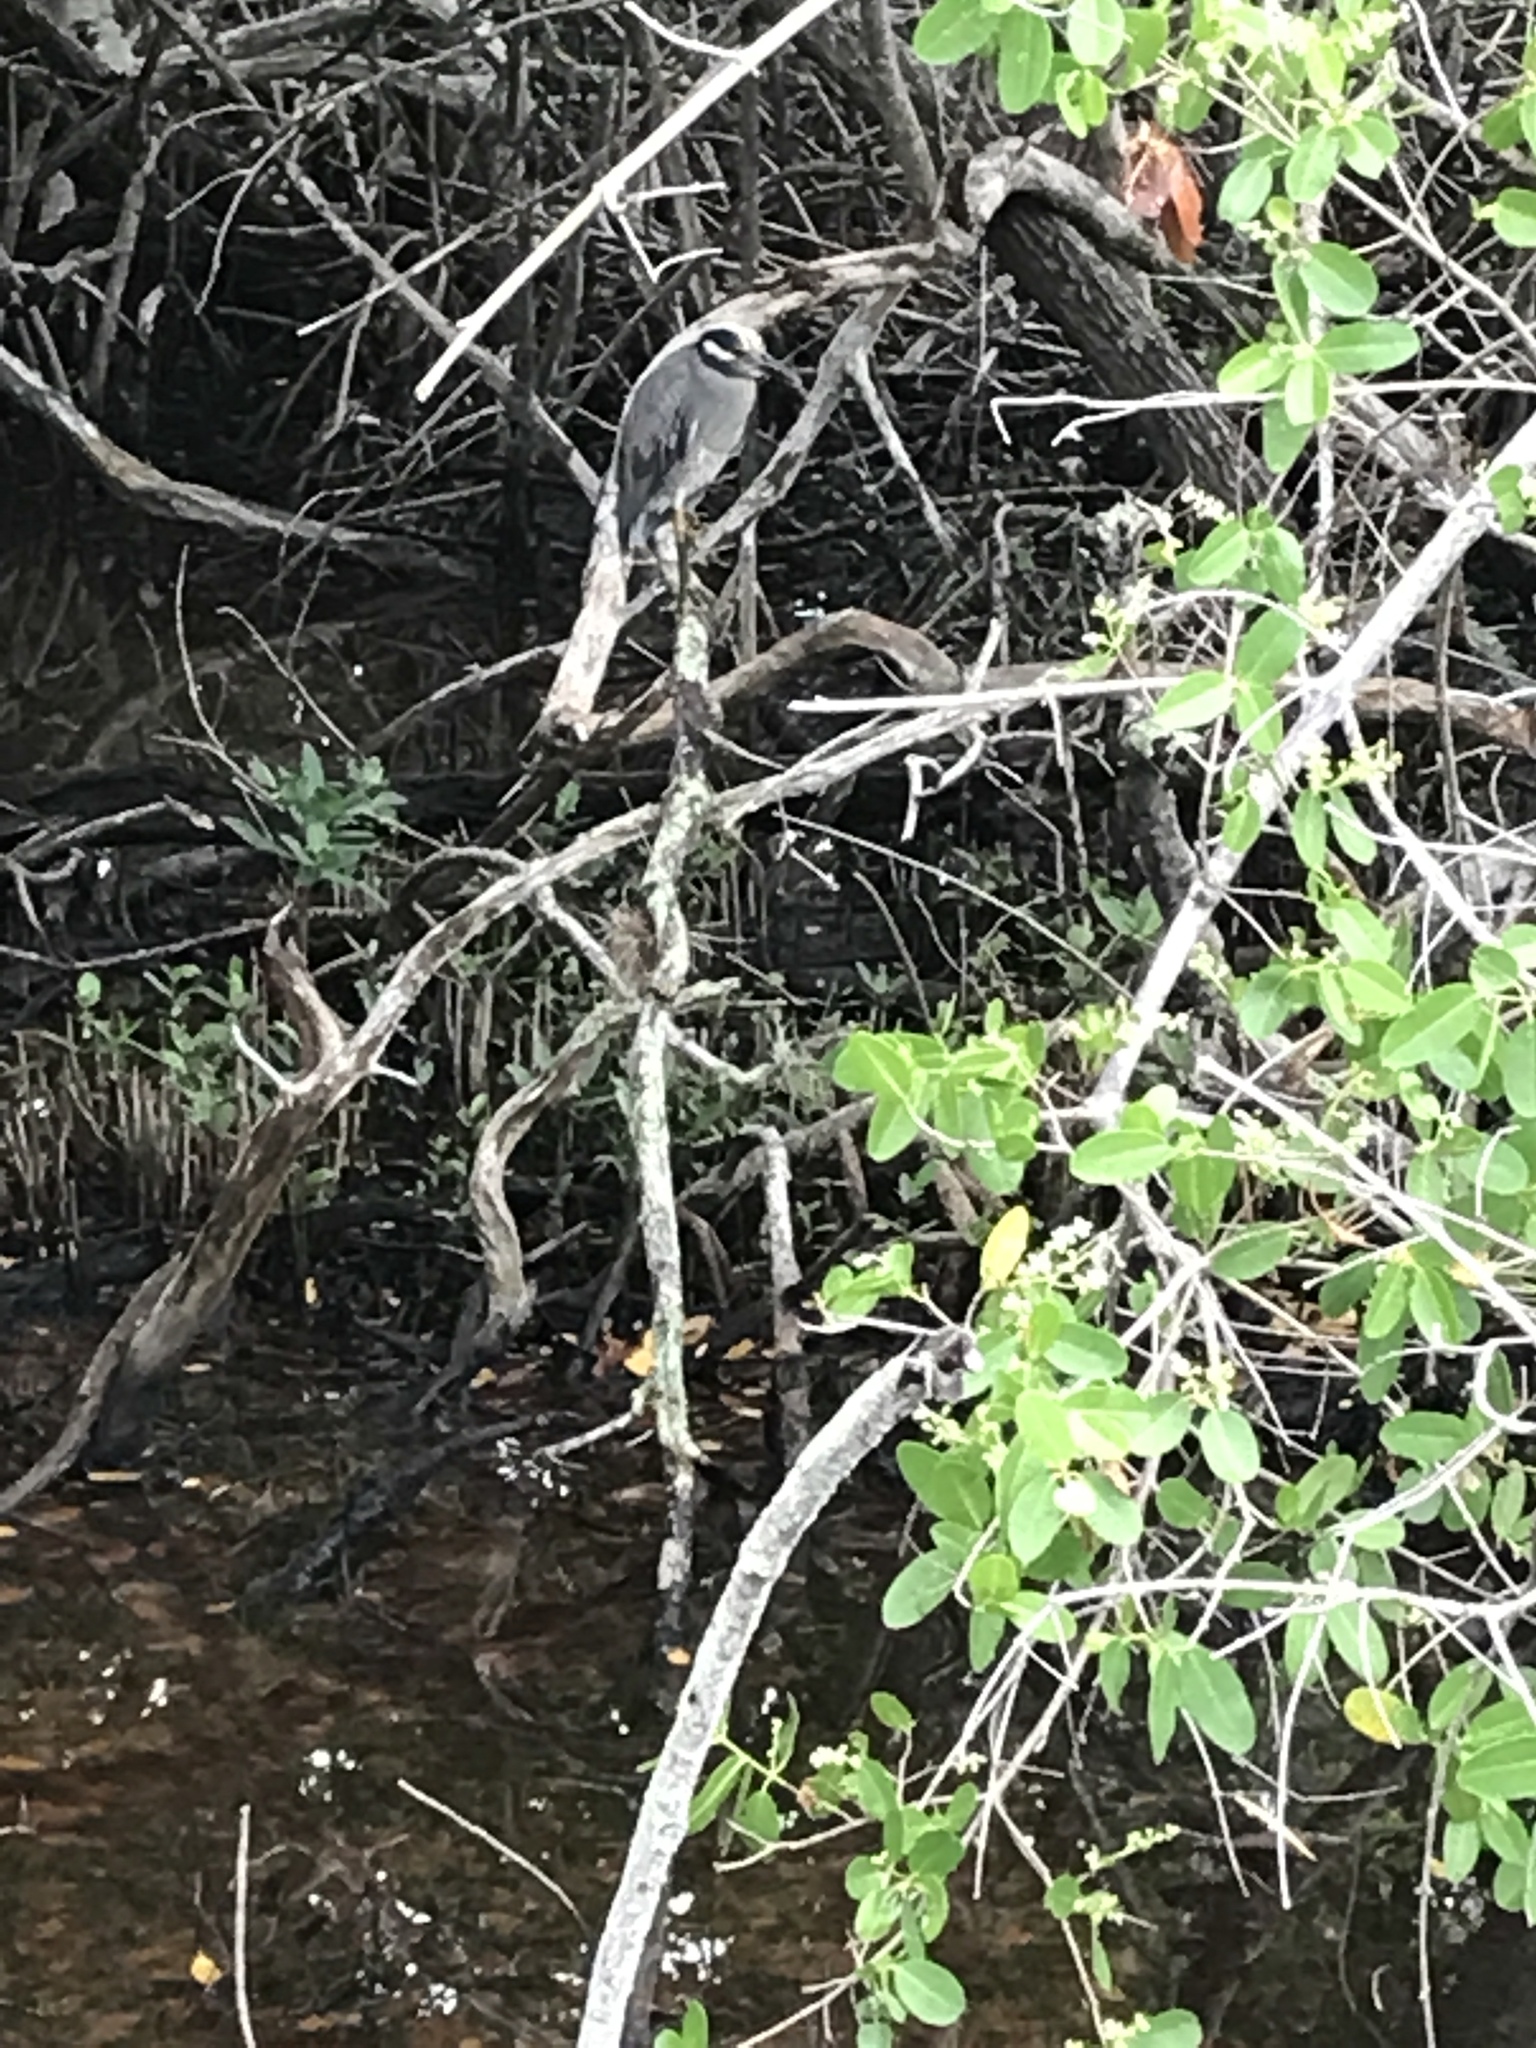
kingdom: Animalia
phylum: Chordata
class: Aves
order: Pelecaniformes
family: Ardeidae
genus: Nyctanassa
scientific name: Nyctanassa violacea
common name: Yellow-crowned night heron
